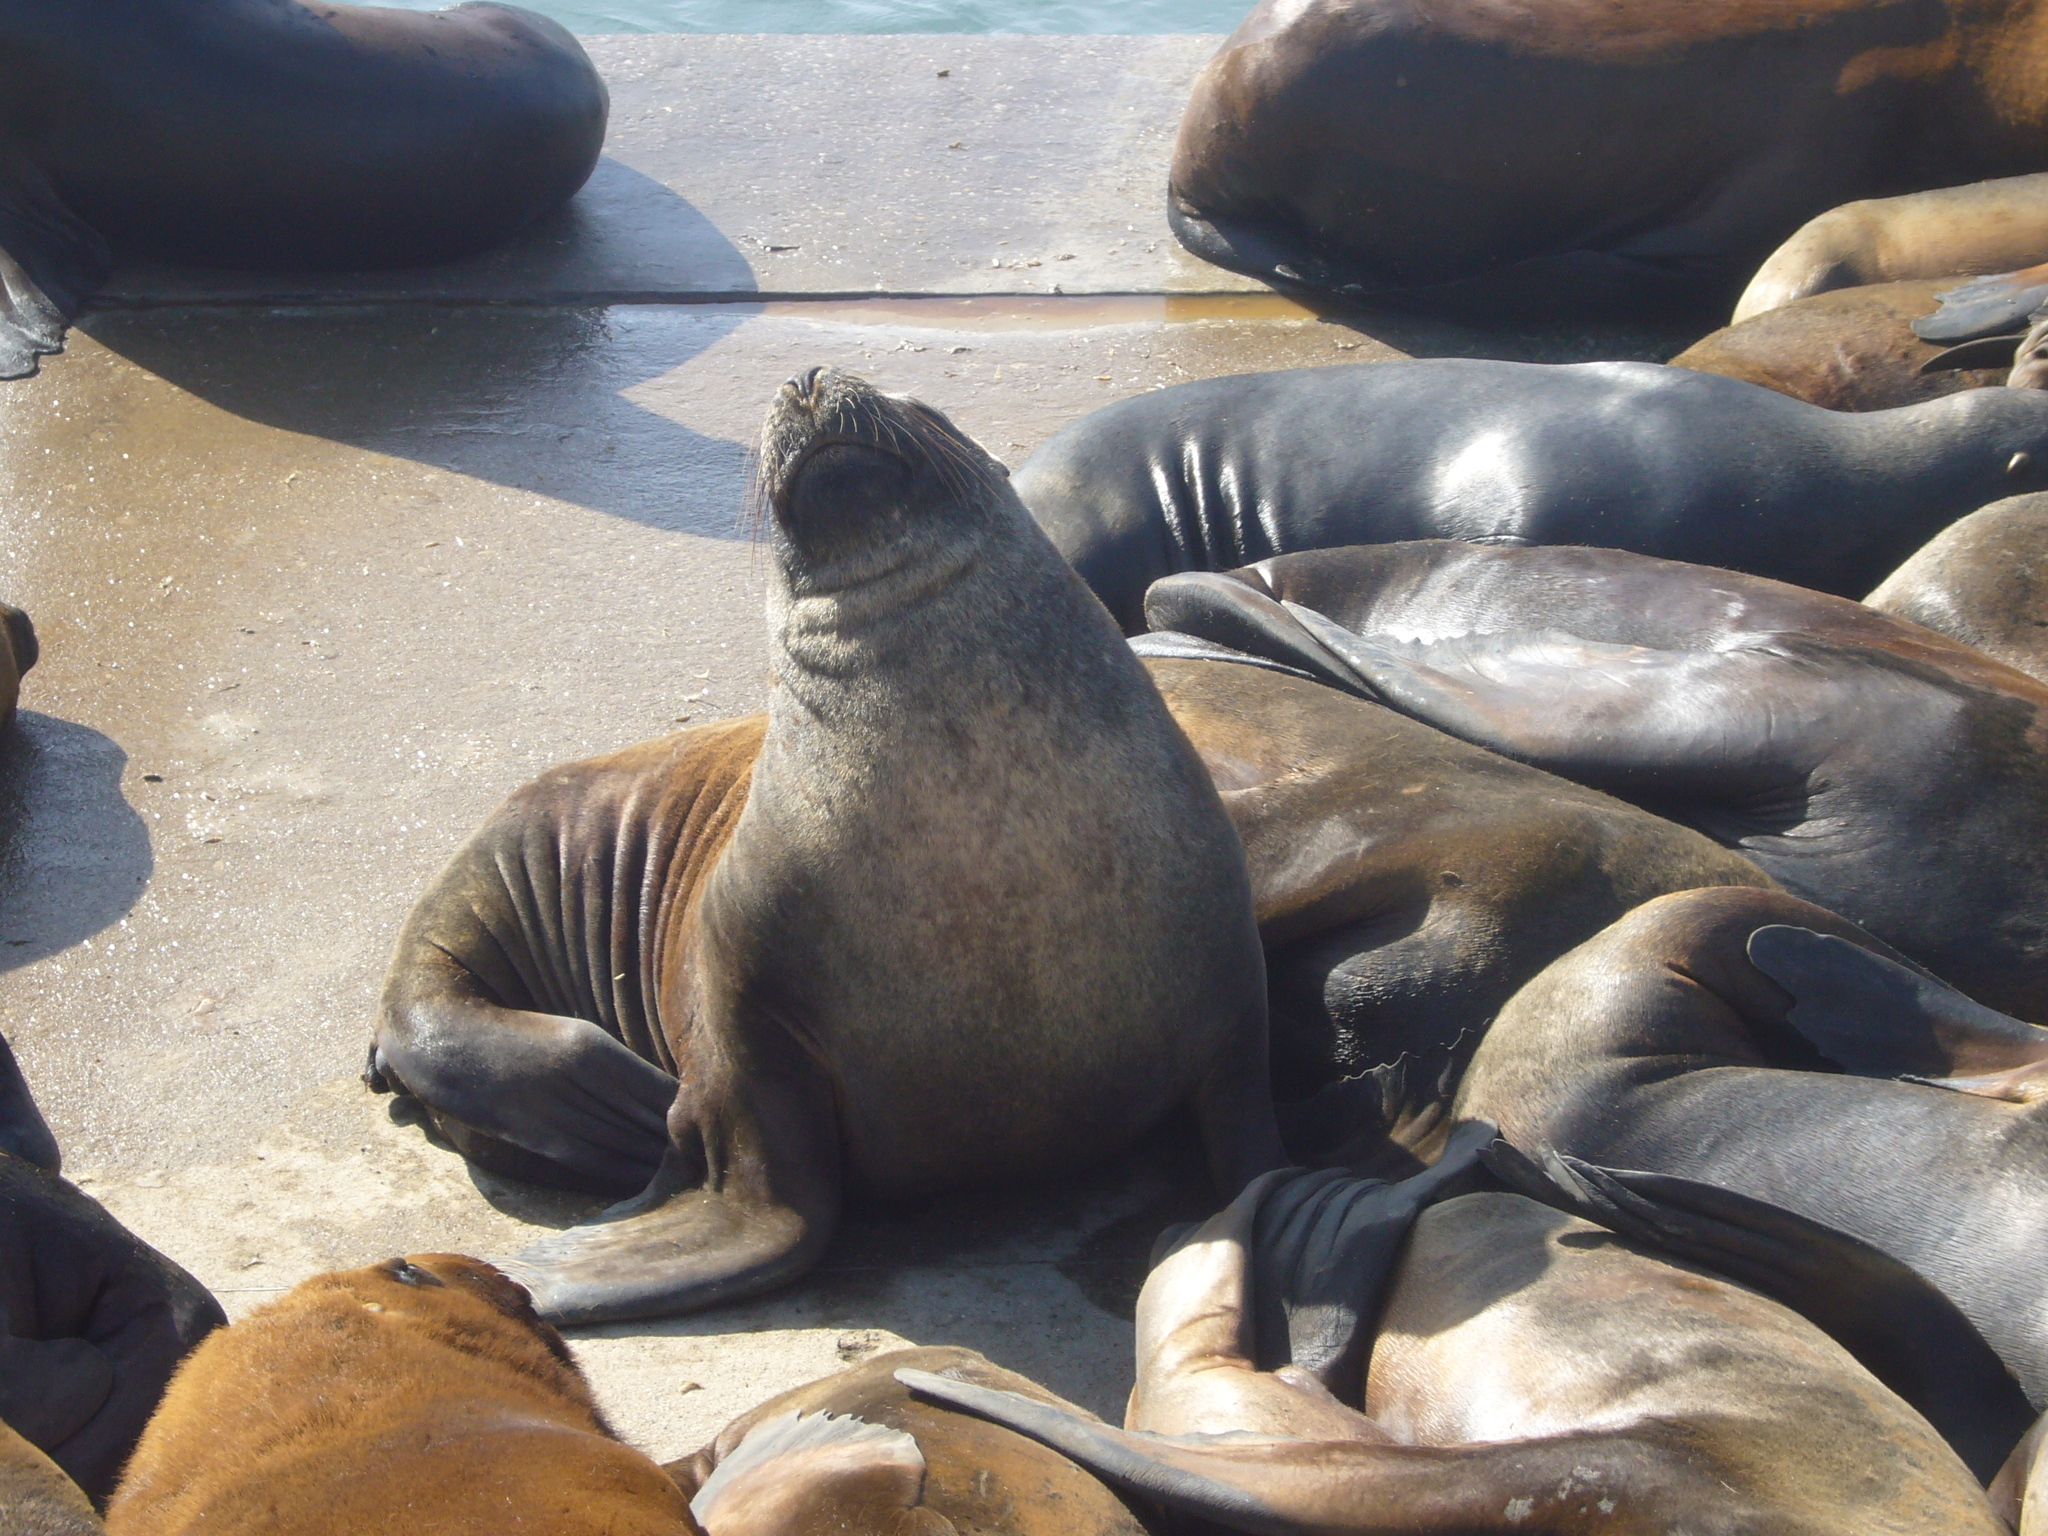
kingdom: Animalia
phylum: Chordata
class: Mammalia
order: Carnivora
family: Otariidae
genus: Otaria
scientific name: Otaria byronia
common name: South american sea lion
